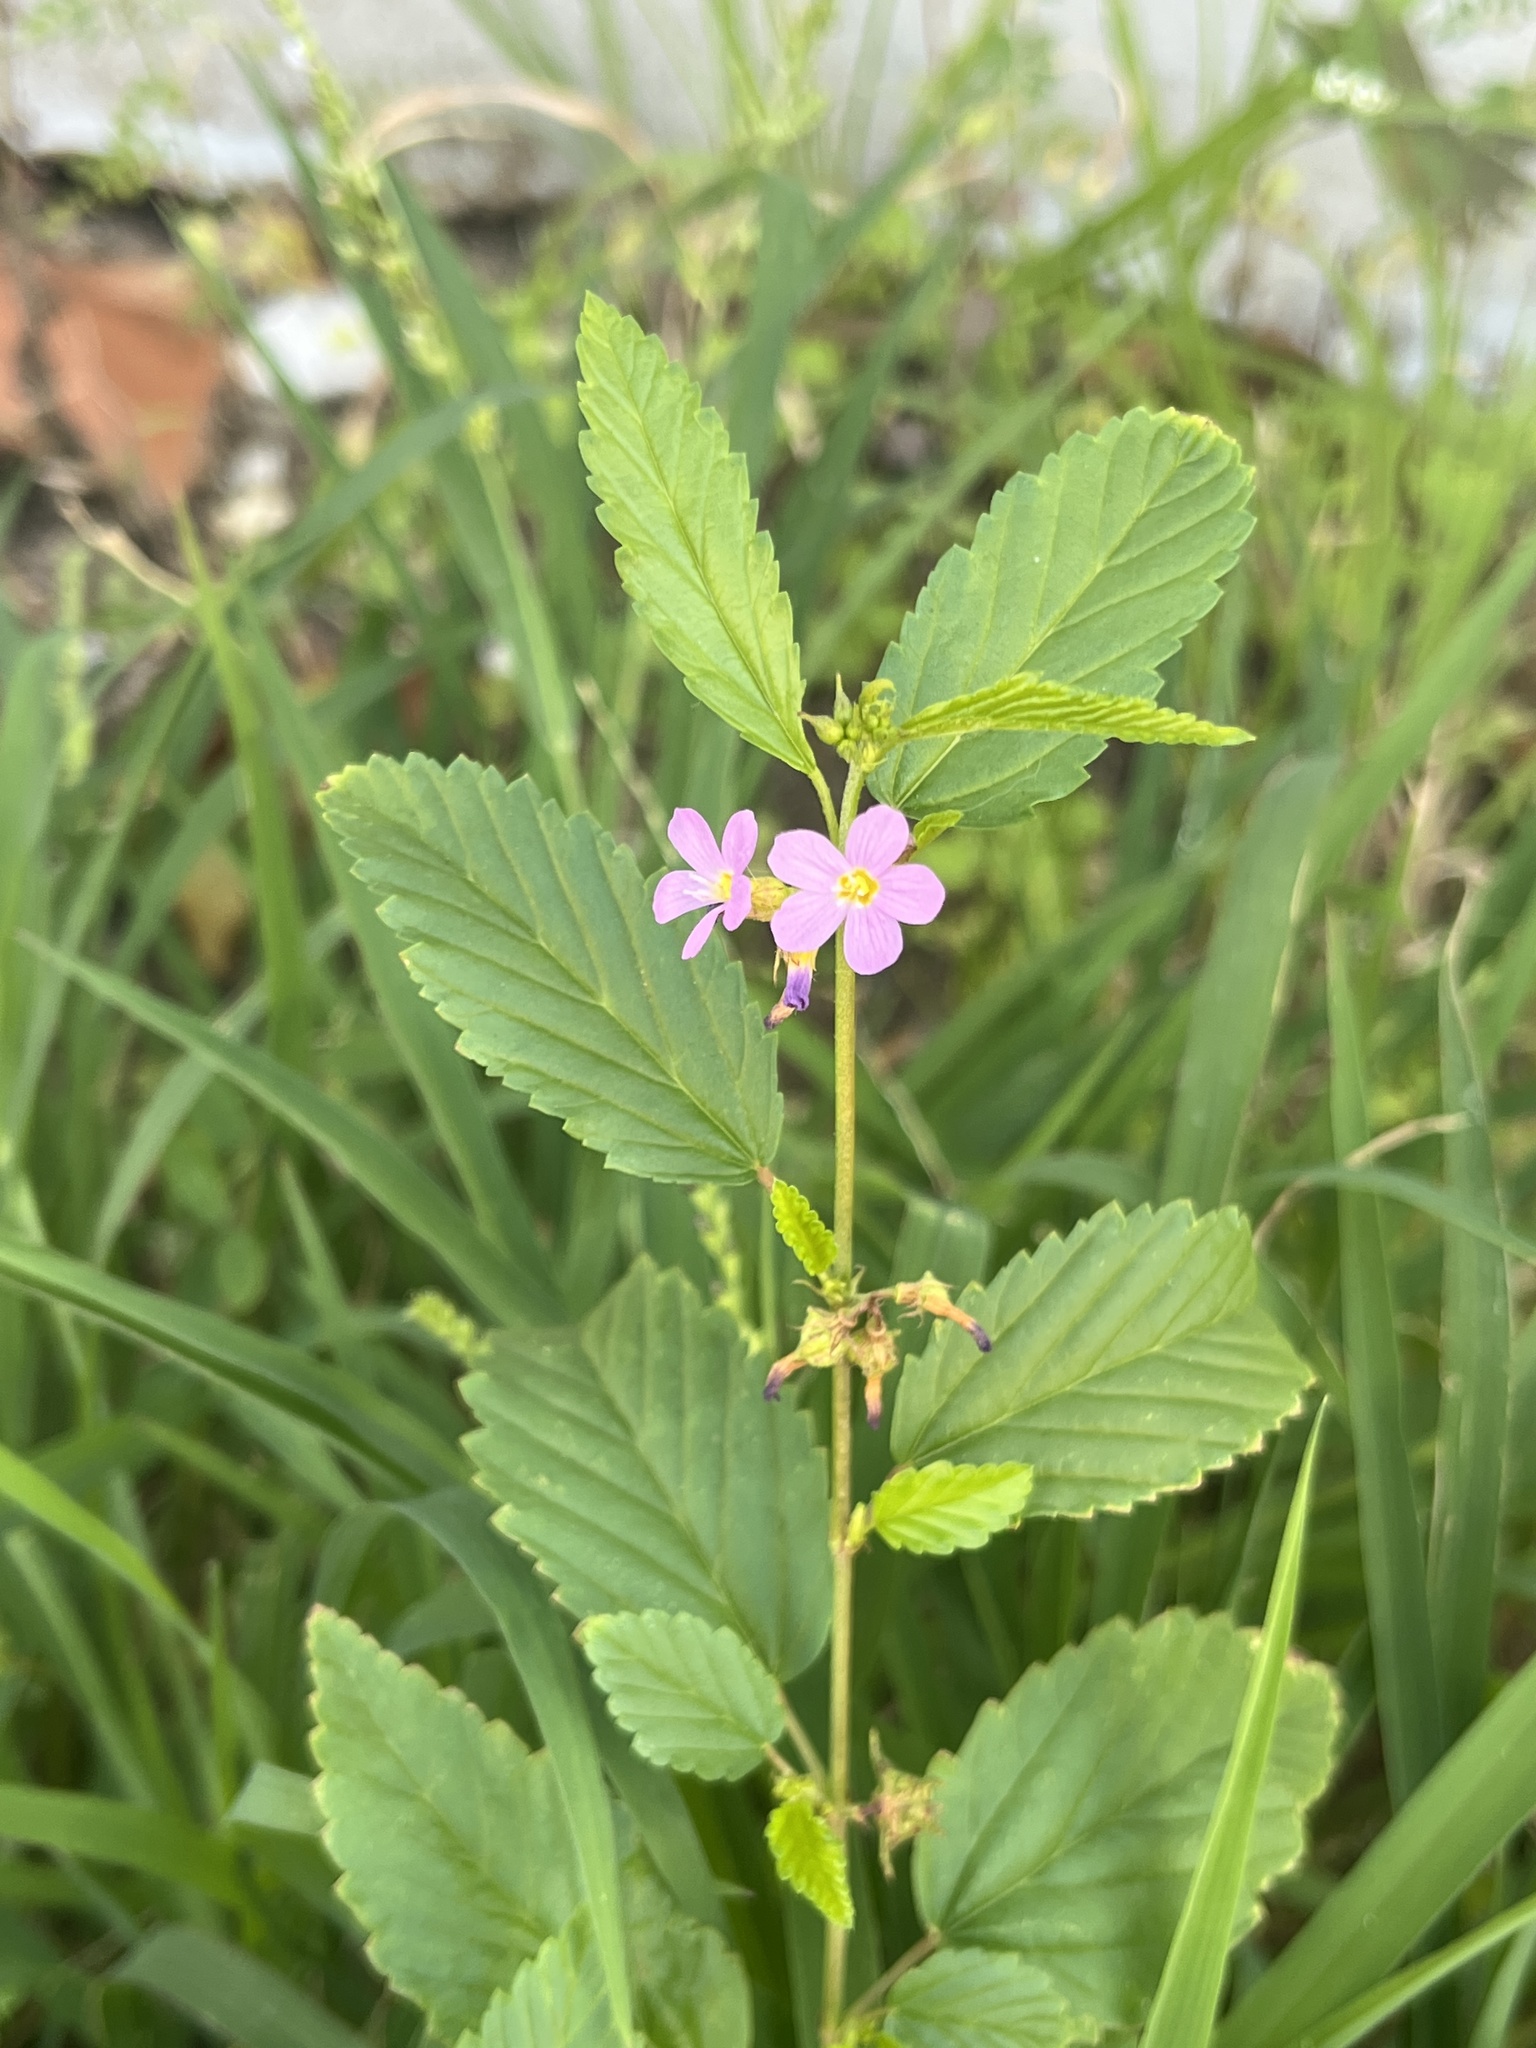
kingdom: Plantae
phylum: Tracheophyta
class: Magnoliopsida
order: Malvales
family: Malvaceae
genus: Melochia
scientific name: Melochia pyramidata
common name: Pyramidflower
